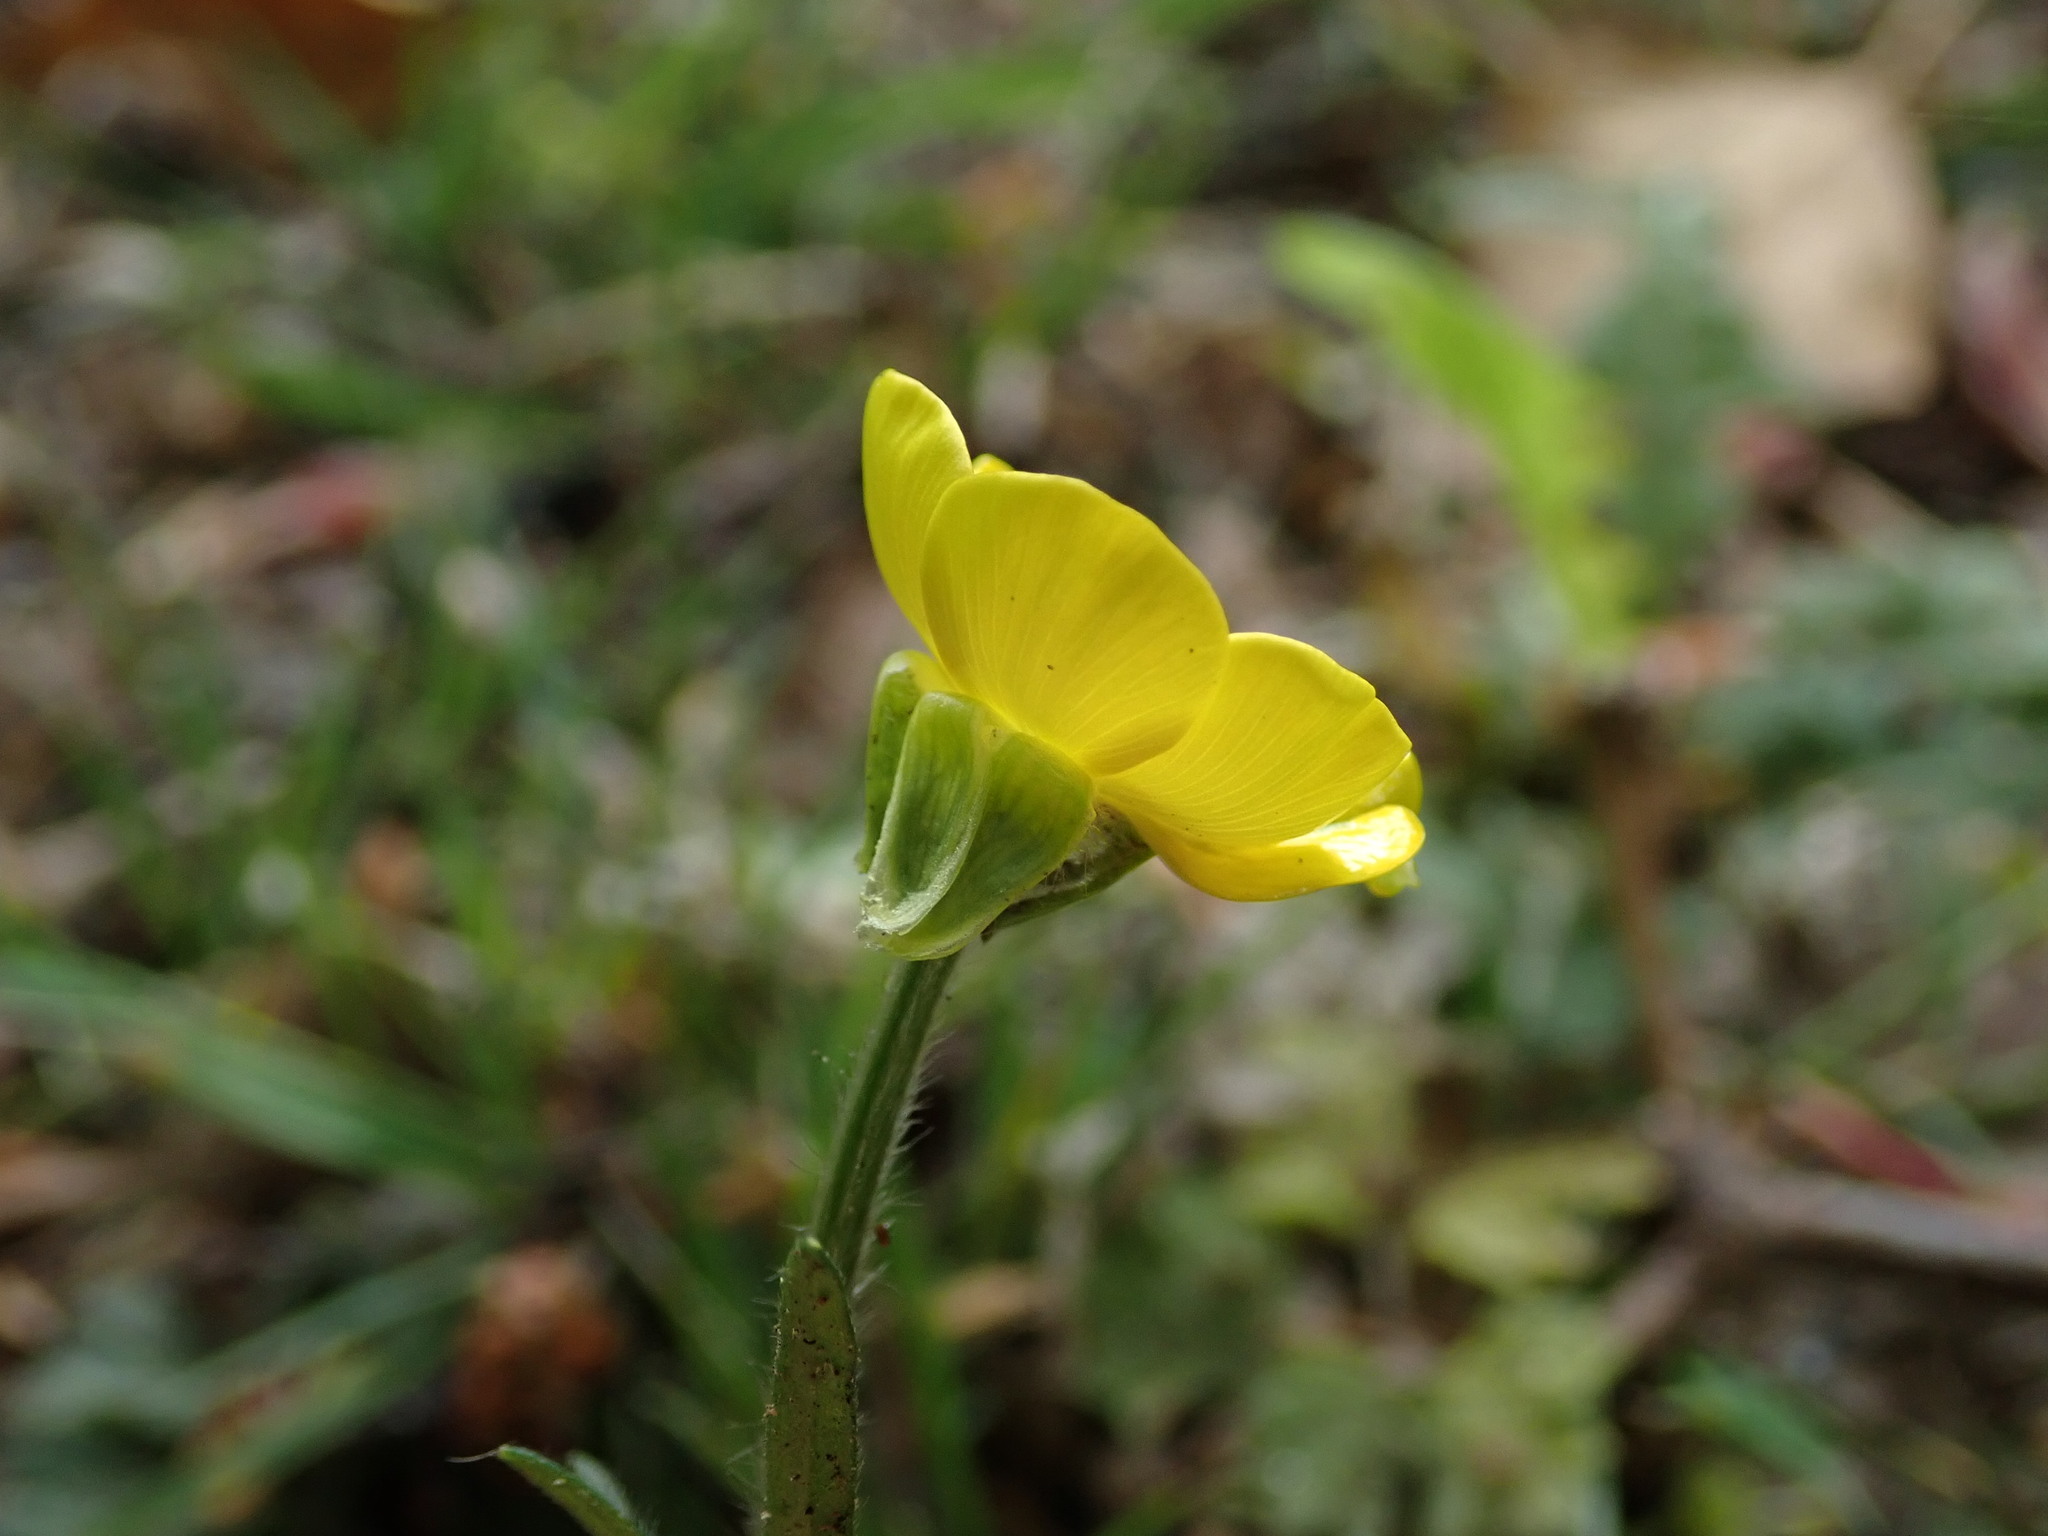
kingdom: Plantae
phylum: Tracheophyta
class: Magnoliopsida
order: Ranunculales
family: Ranunculaceae
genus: Ranunculus
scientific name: Ranunculus bulbosus
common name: Bulbous buttercup
